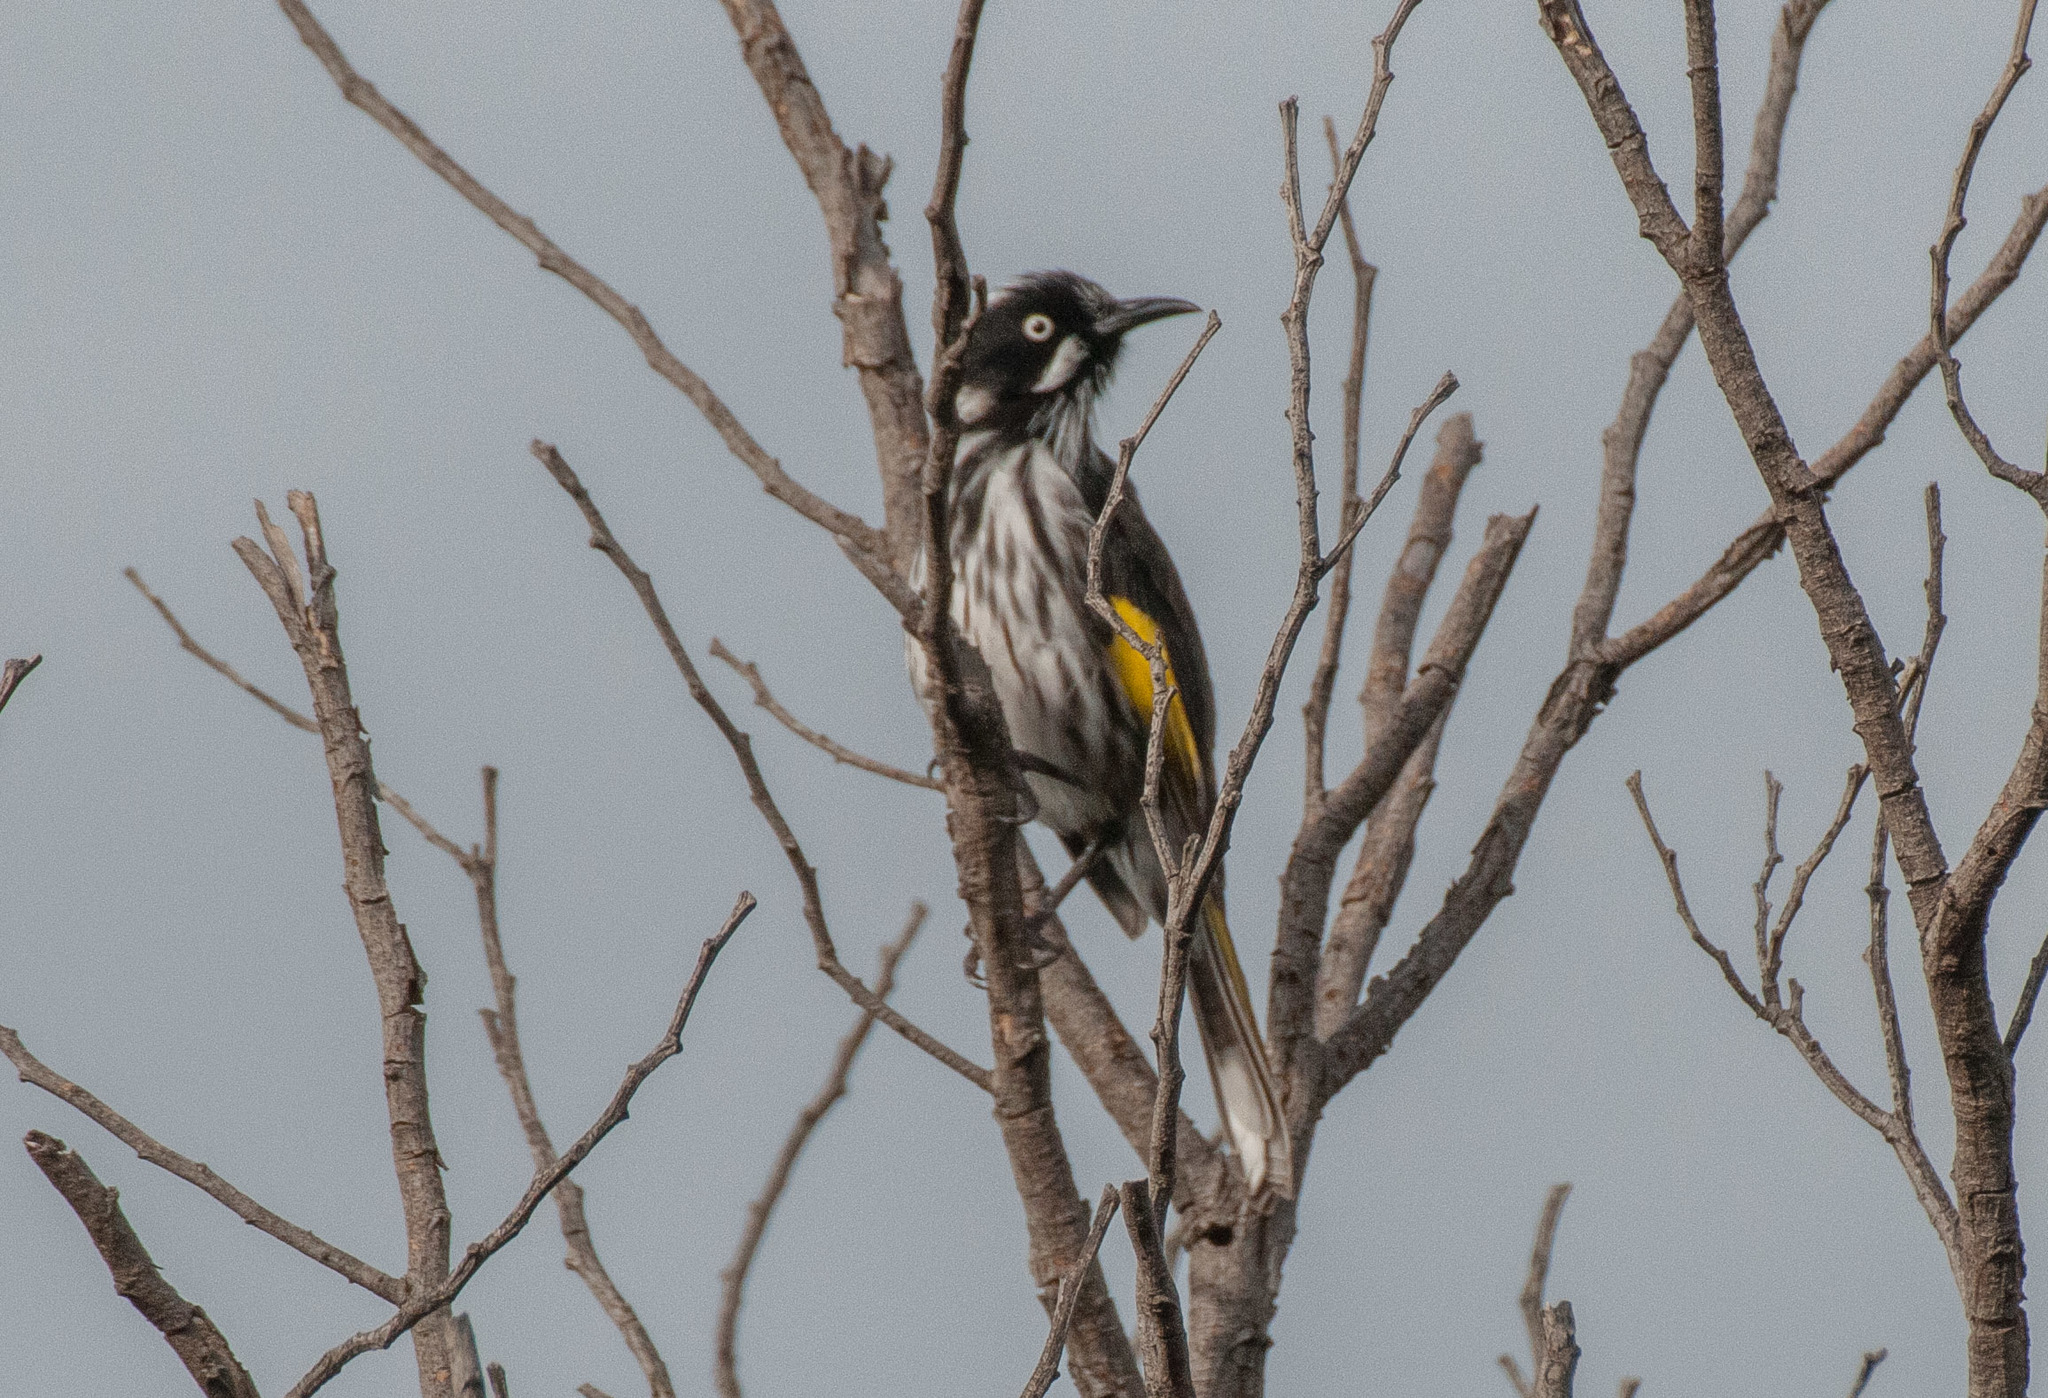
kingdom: Animalia
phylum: Chordata
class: Aves
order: Passeriformes
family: Meliphagidae
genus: Phylidonyris
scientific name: Phylidonyris novaehollandiae
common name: New holland honeyeater
